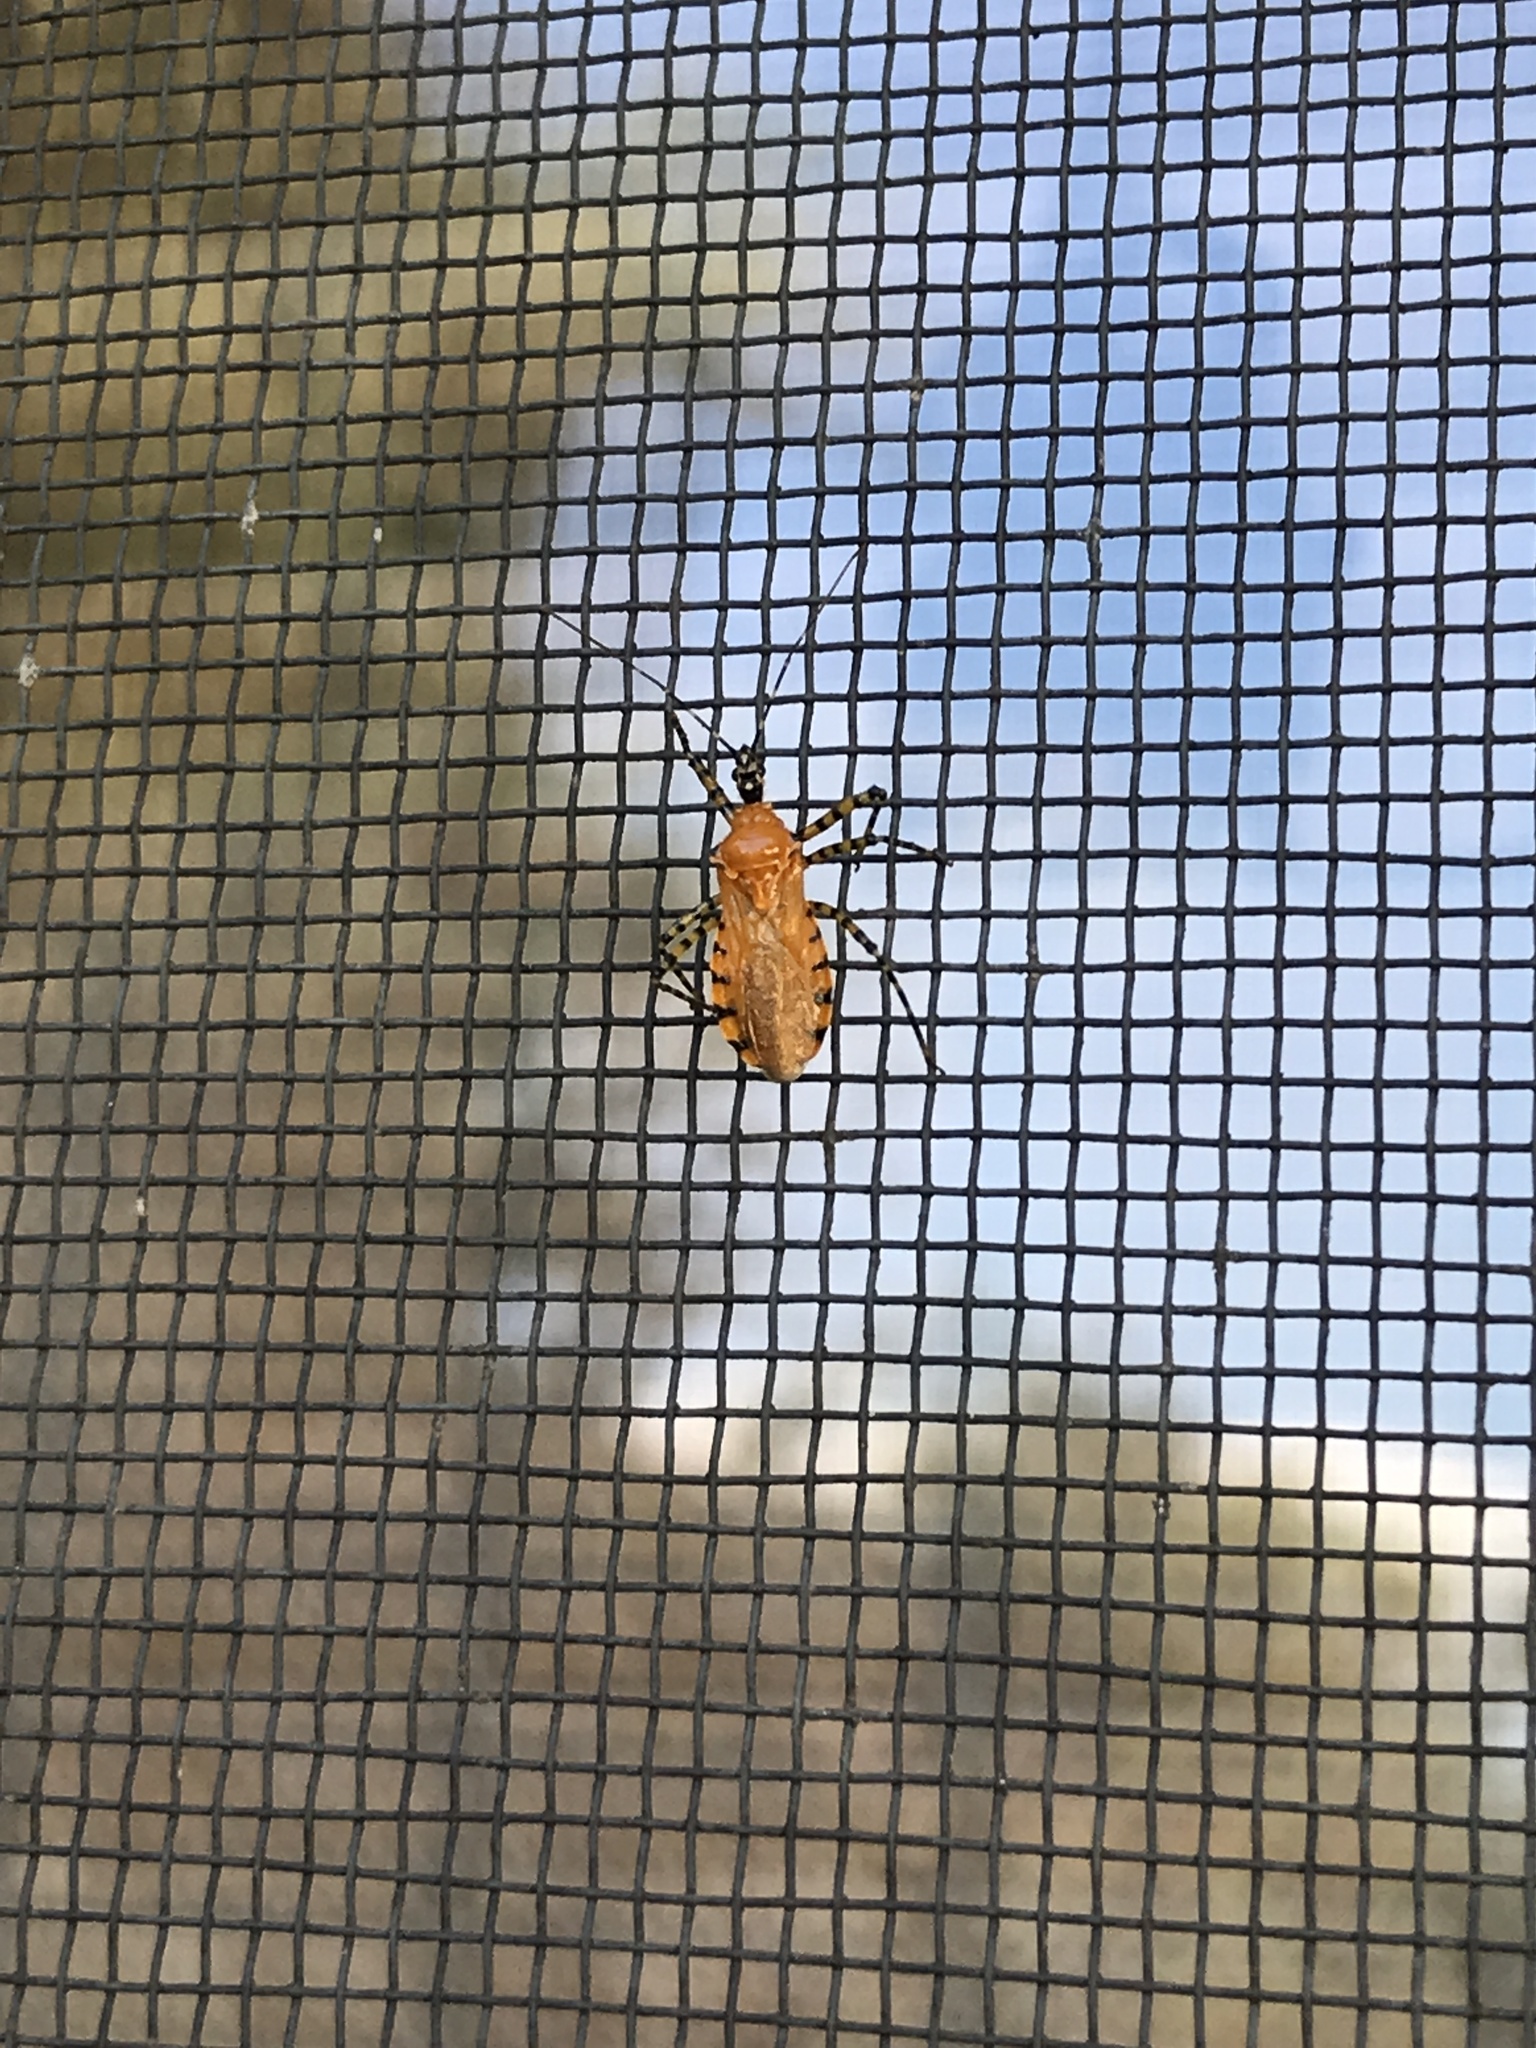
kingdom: Animalia
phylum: Arthropoda
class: Insecta
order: Hemiptera
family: Reduviidae
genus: Pselliopus
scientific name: Pselliopus barberi
